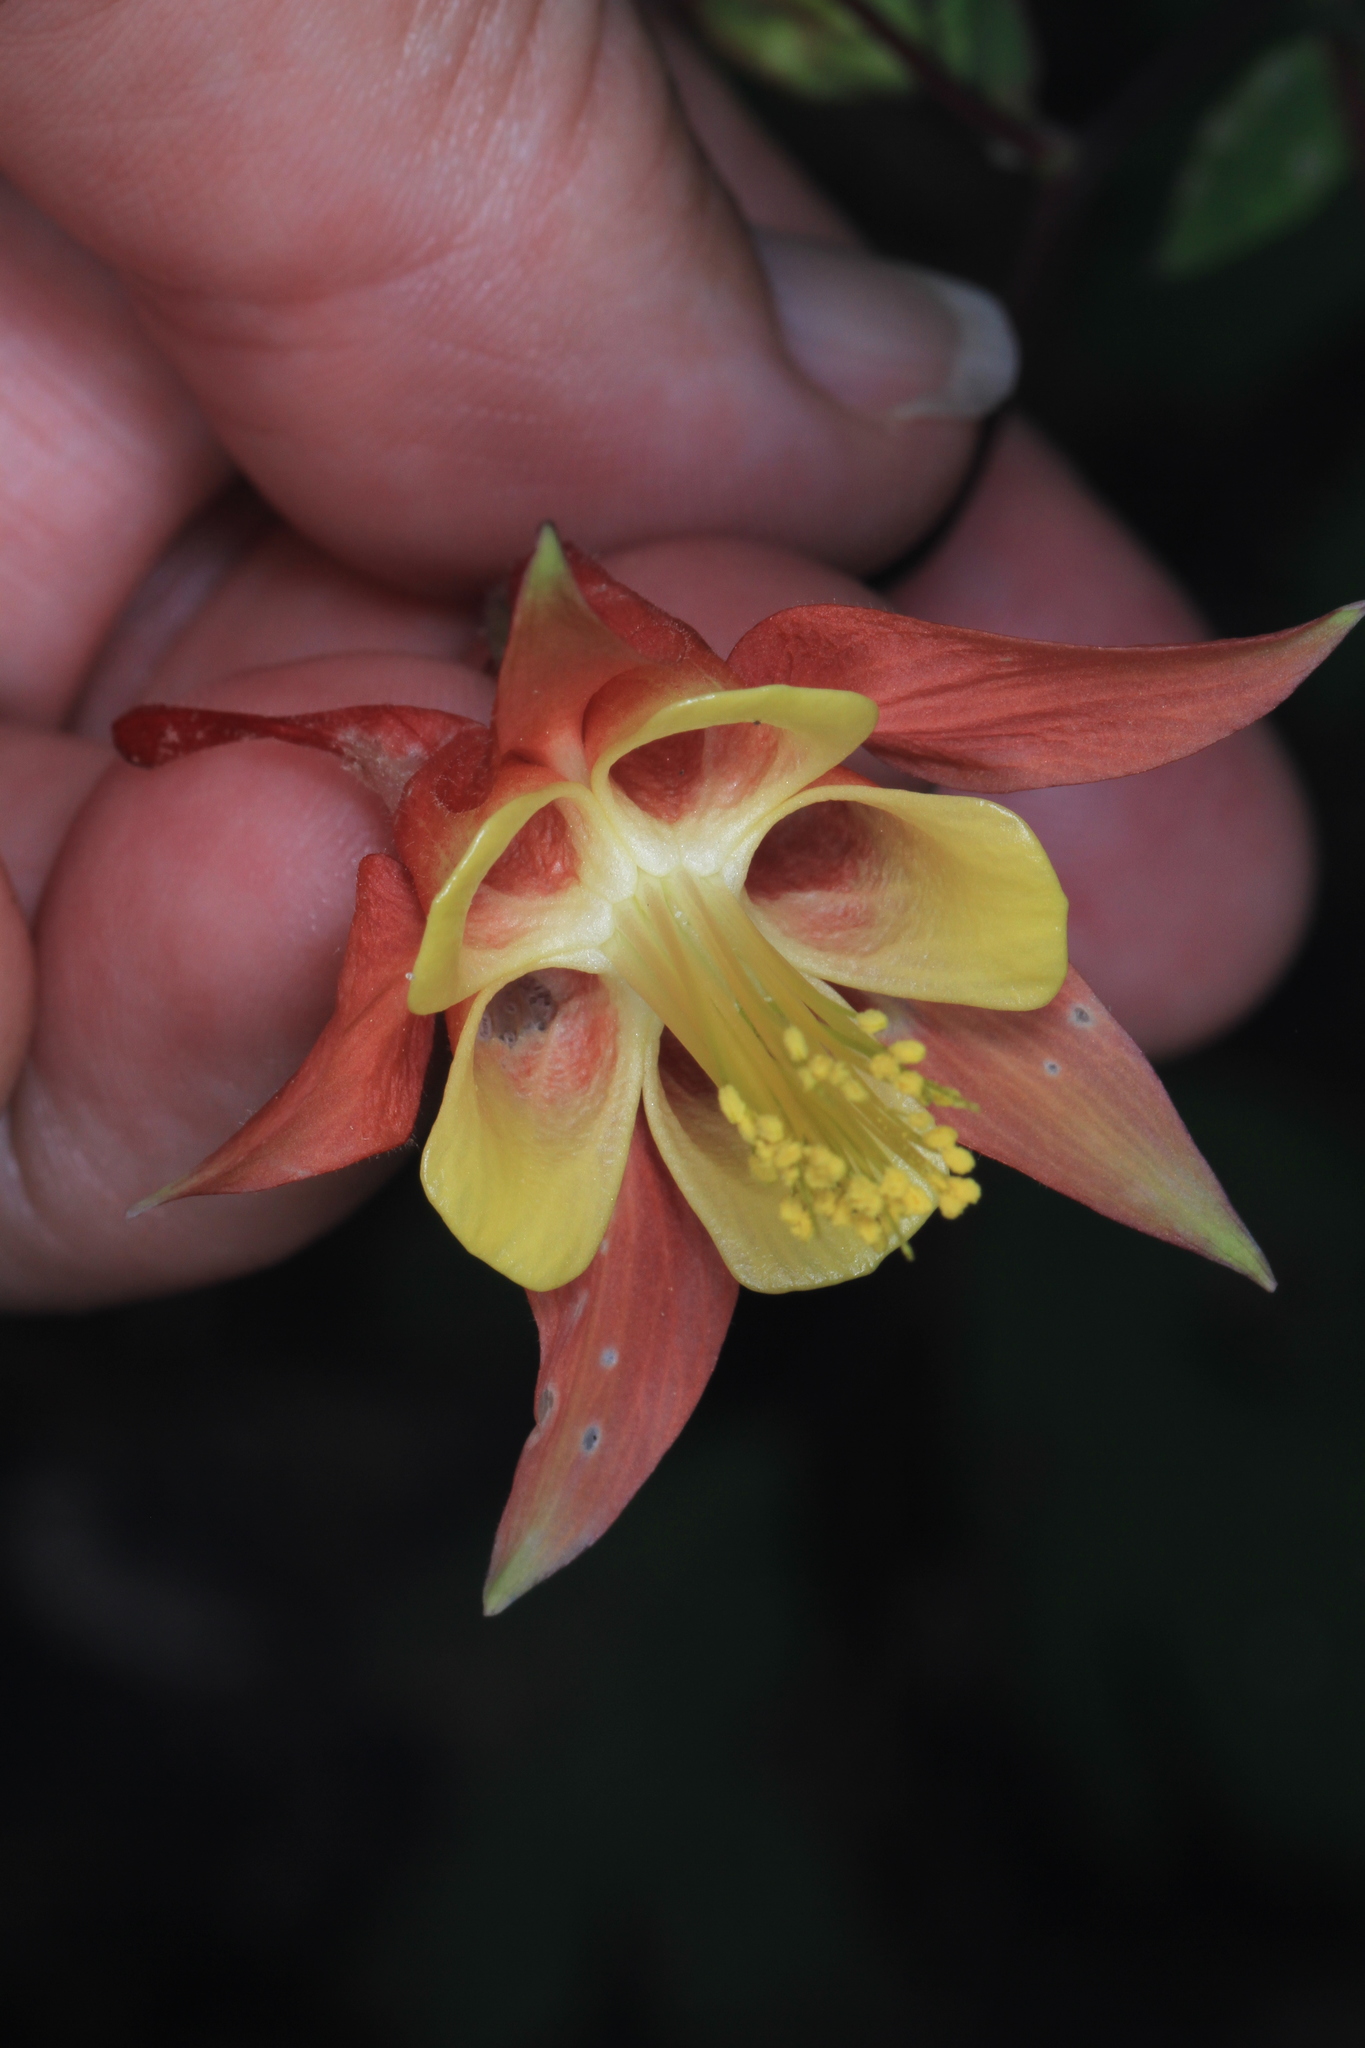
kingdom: Plantae
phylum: Tracheophyta
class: Magnoliopsida
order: Ranunculales
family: Ranunculaceae
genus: Aquilegia
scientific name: Aquilegia canadensis
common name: American columbine
